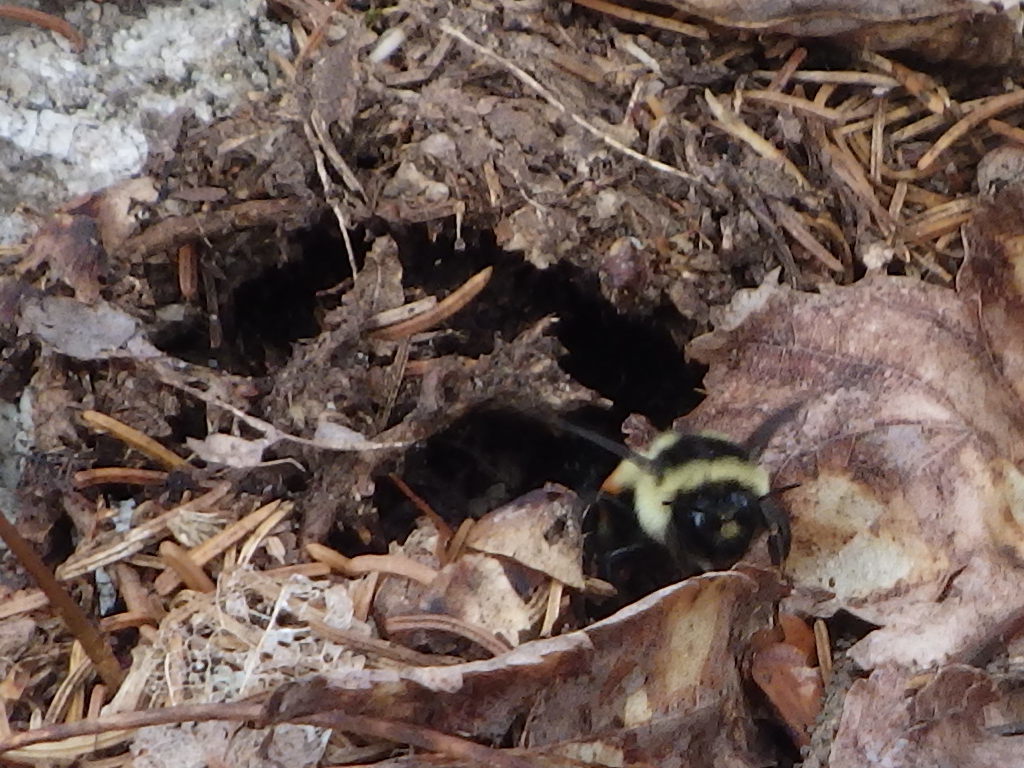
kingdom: Animalia
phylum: Arthropoda
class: Insecta
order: Hymenoptera
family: Apidae
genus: Bombus
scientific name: Bombus ternarius
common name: Tri-colored bumble bee
